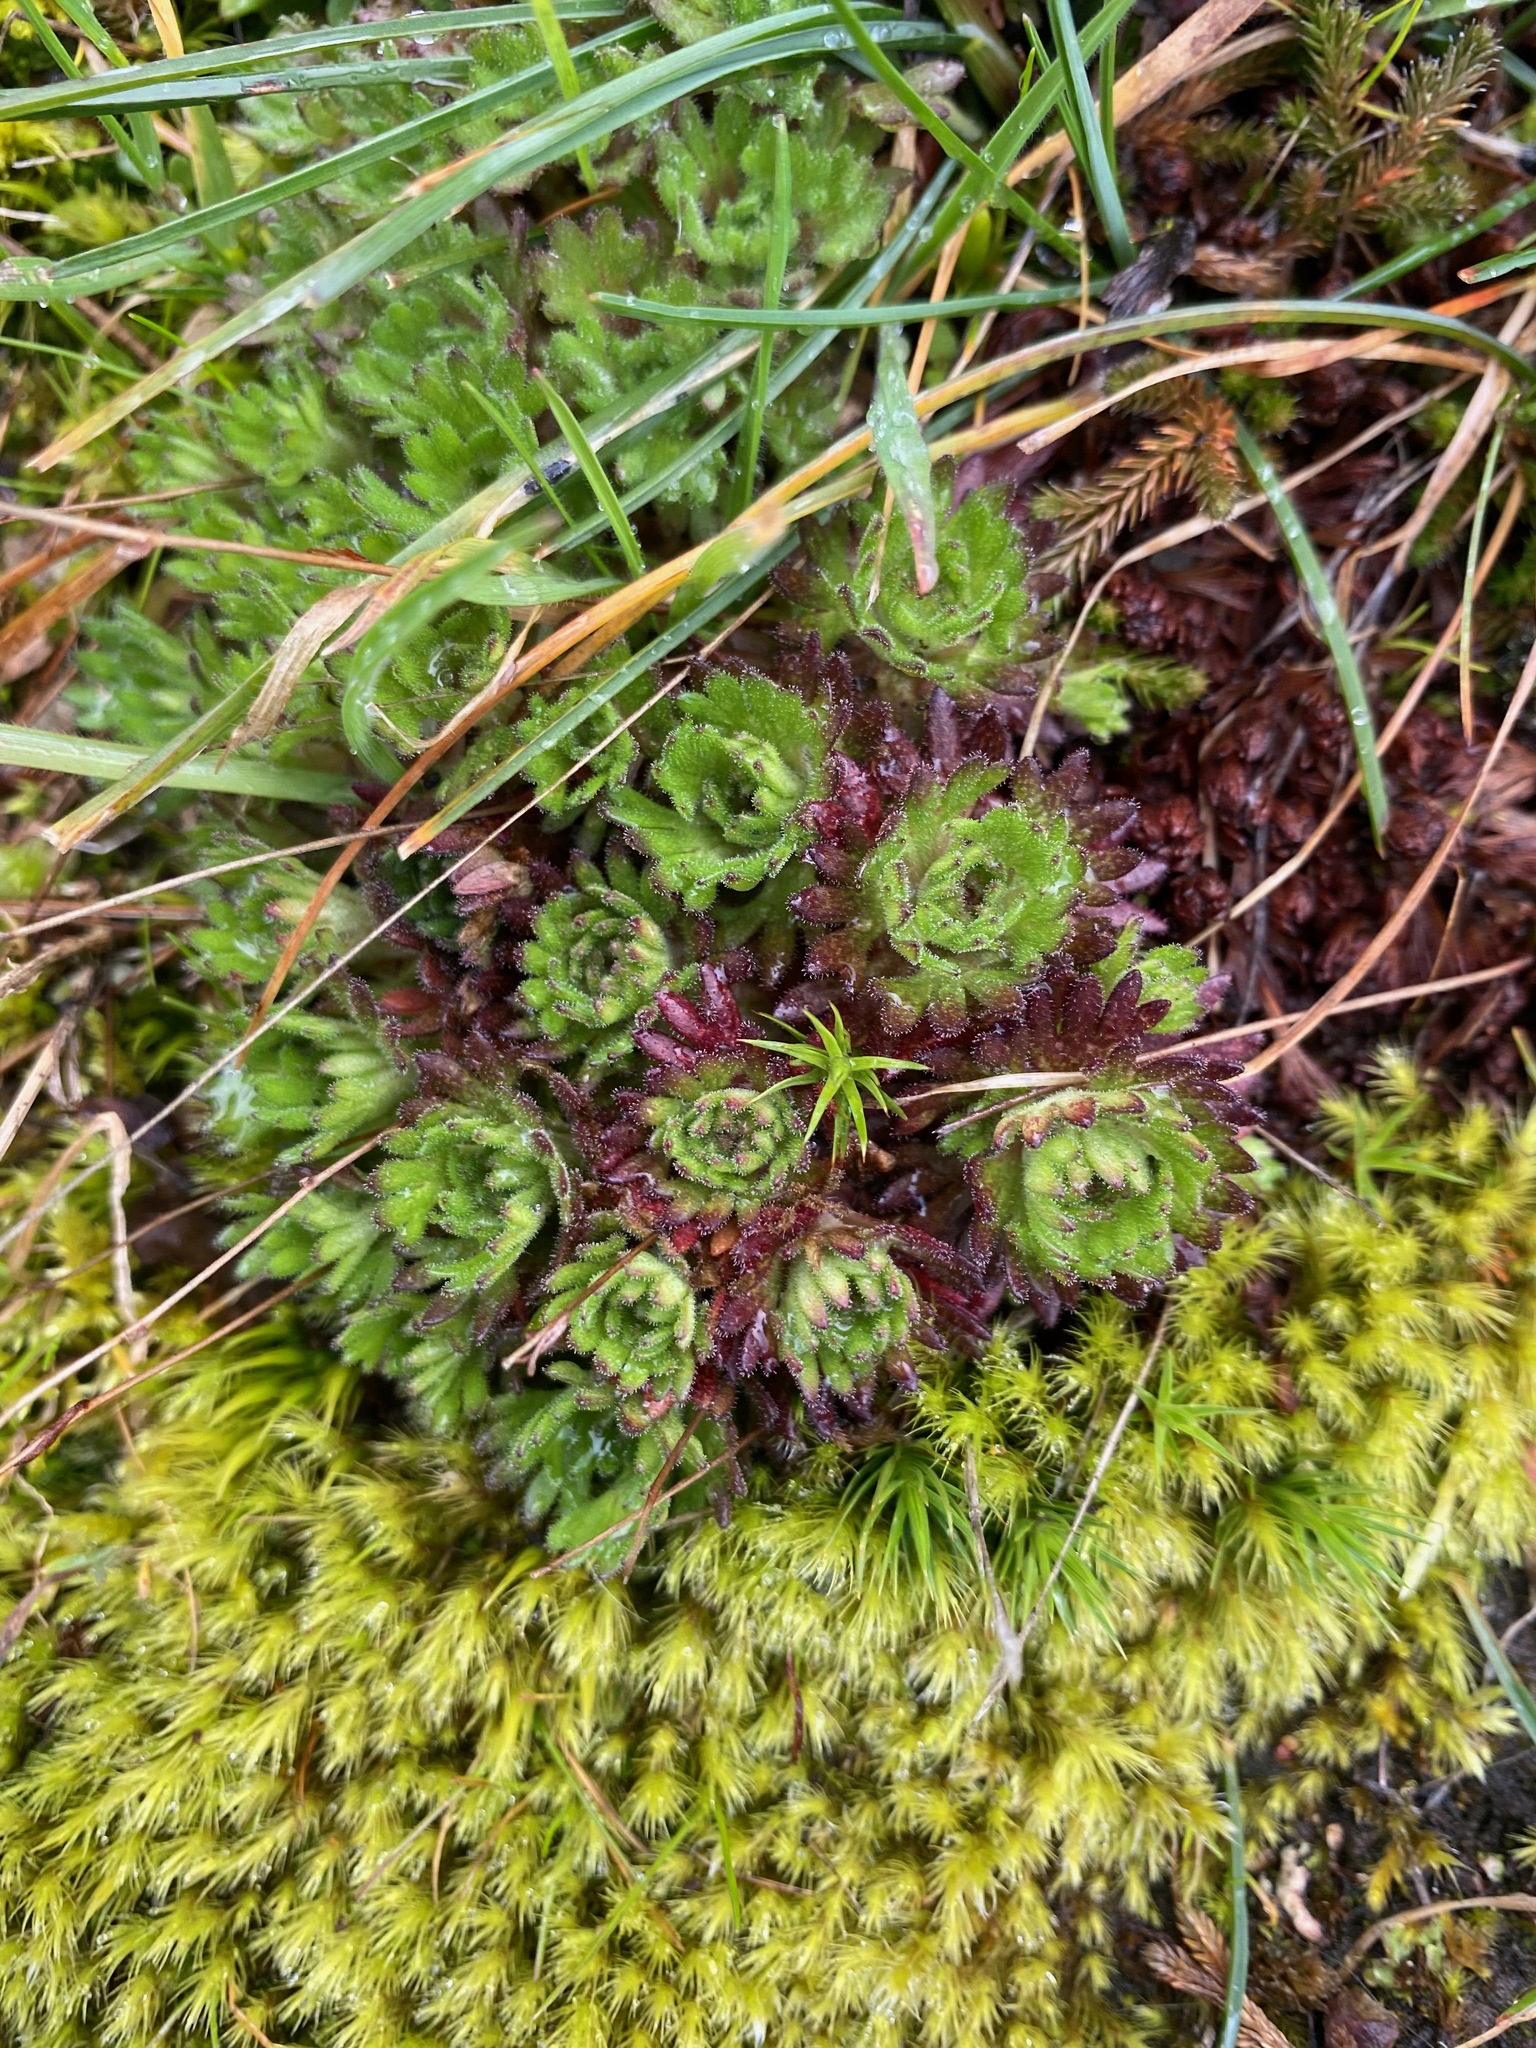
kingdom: Plantae
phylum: Tracheophyta
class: Magnoliopsida
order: Saxifragales
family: Saxifragaceae
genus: Saxifraga
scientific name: Saxifraga cespitosa
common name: Tufted saxifrage
